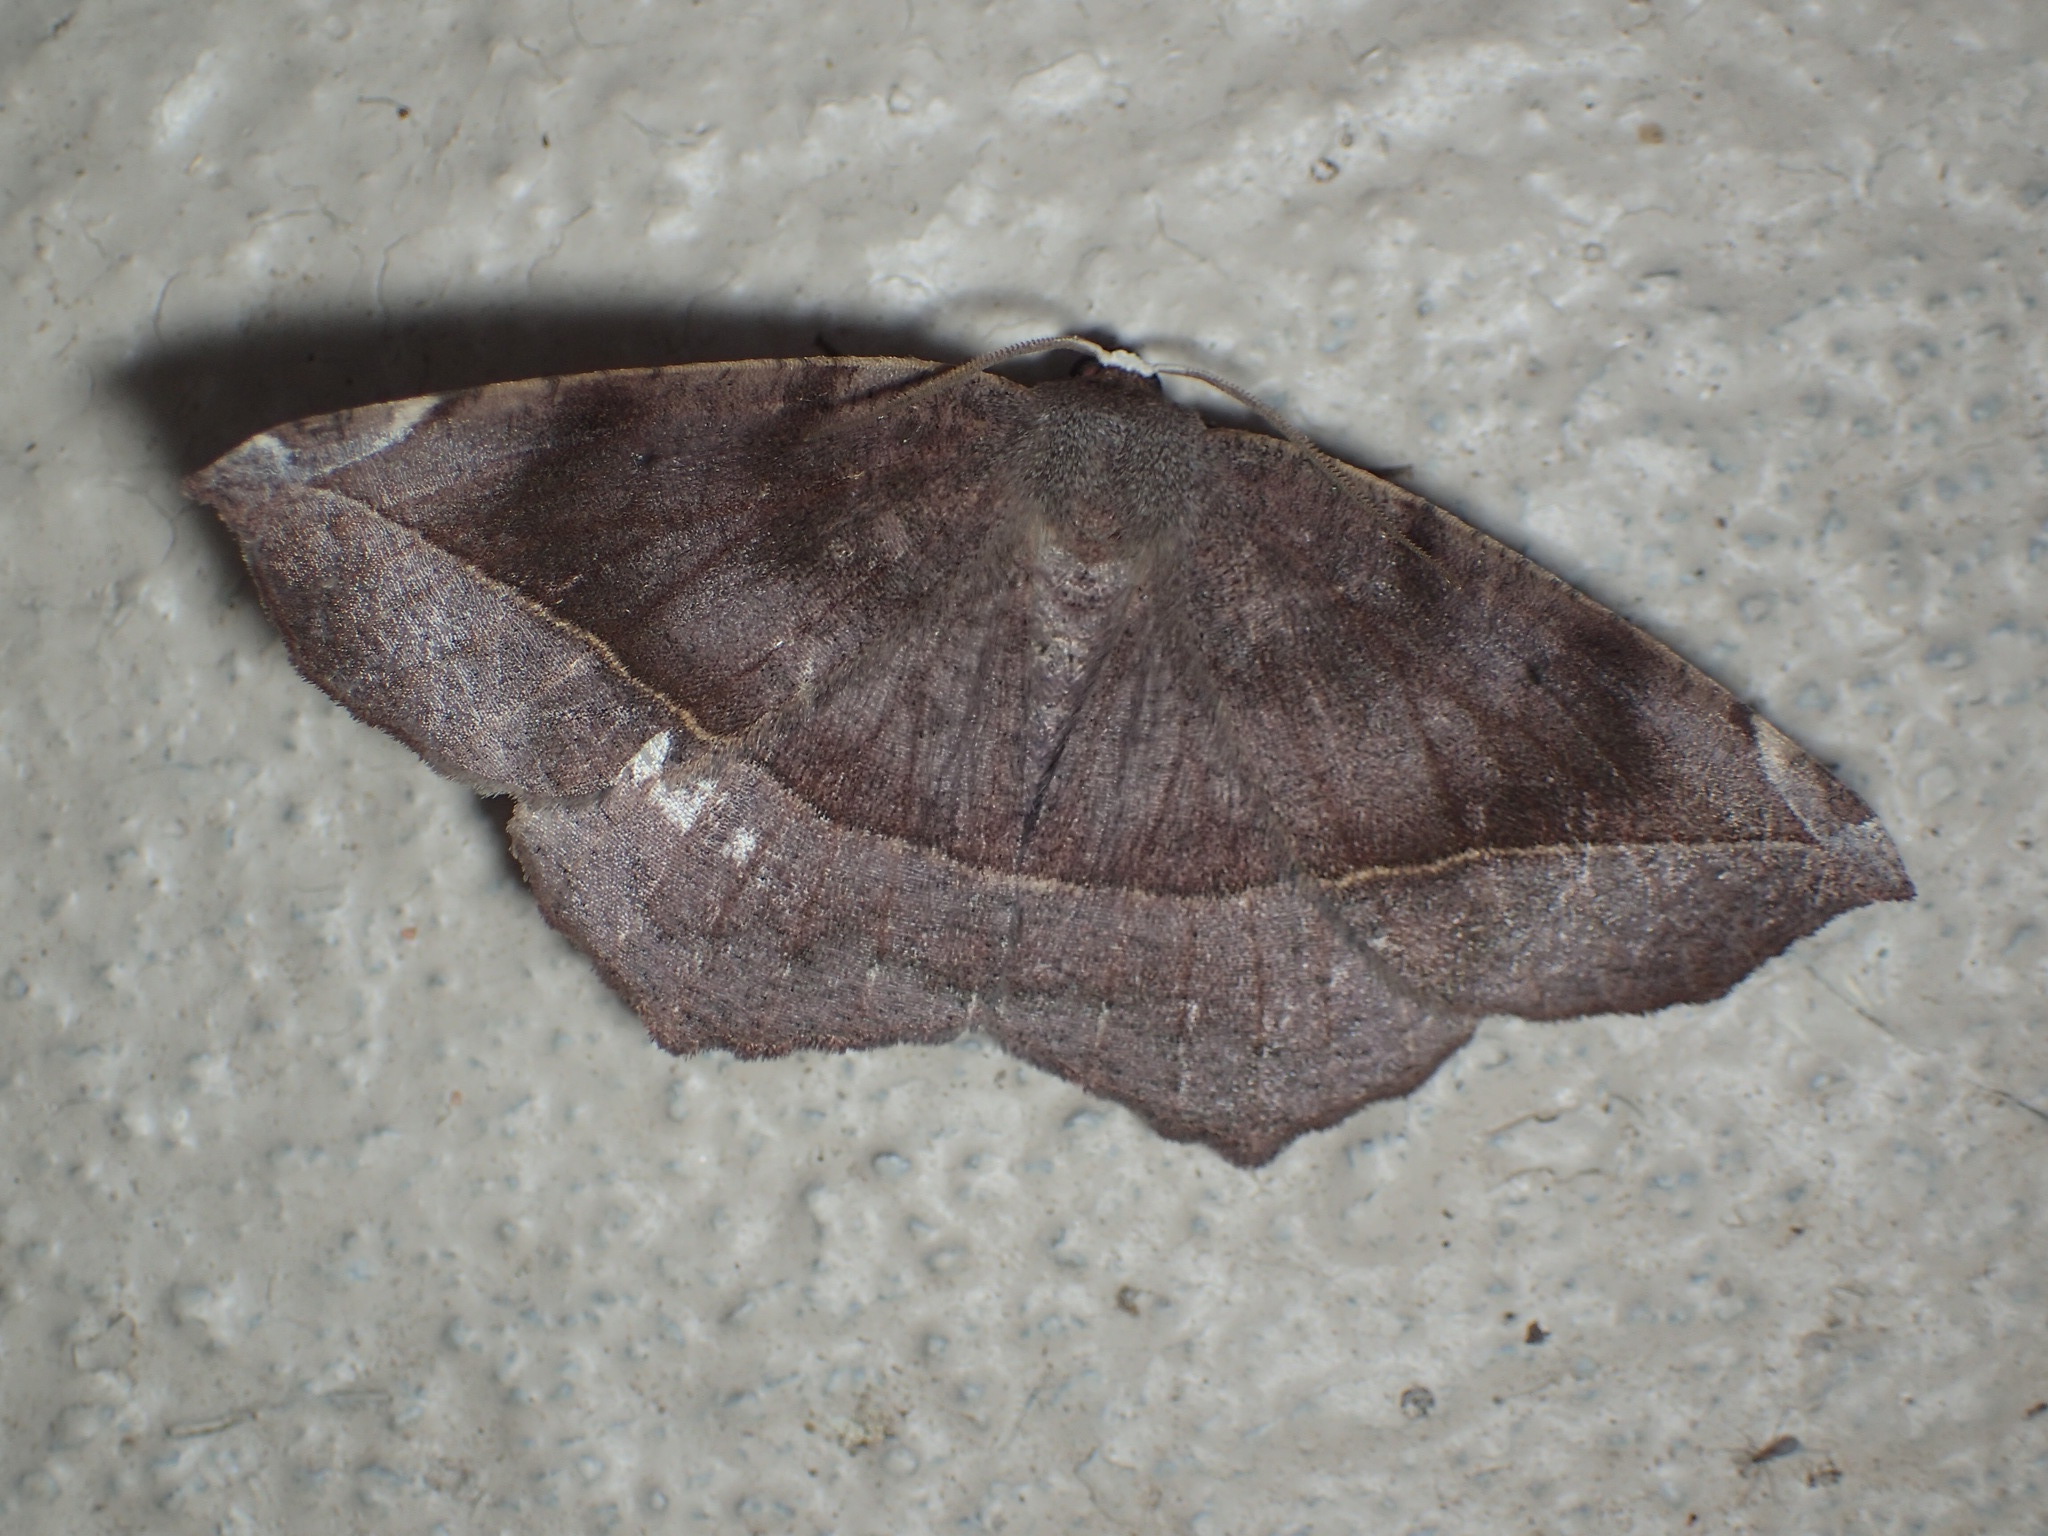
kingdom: Animalia
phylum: Arthropoda
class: Insecta
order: Lepidoptera
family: Geometridae
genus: Eutrapela
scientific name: Eutrapela clemataria
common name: Curved-toothed geometer
